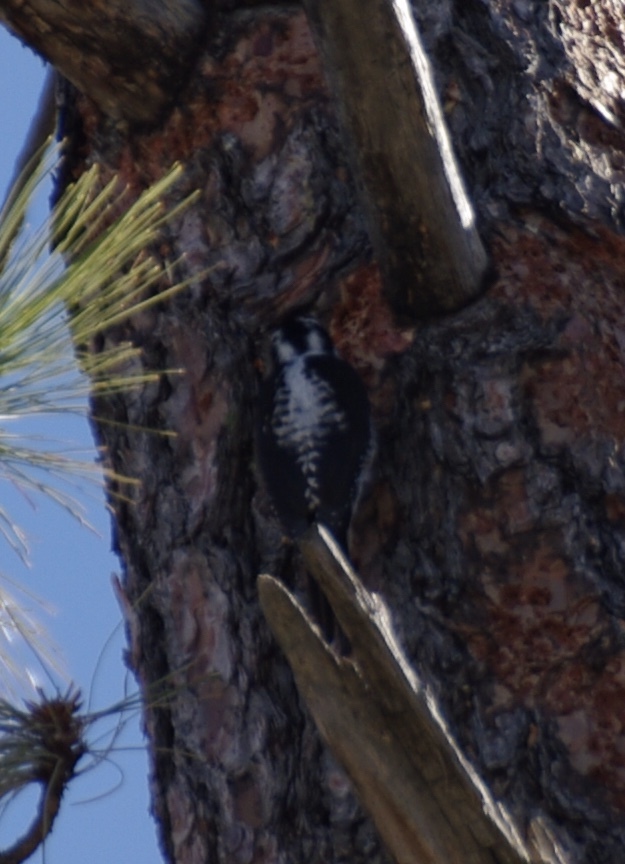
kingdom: Animalia
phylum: Chordata
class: Aves
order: Piciformes
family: Picidae
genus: Picoides
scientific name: Picoides dorsalis
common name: American three-toed woodpecker
